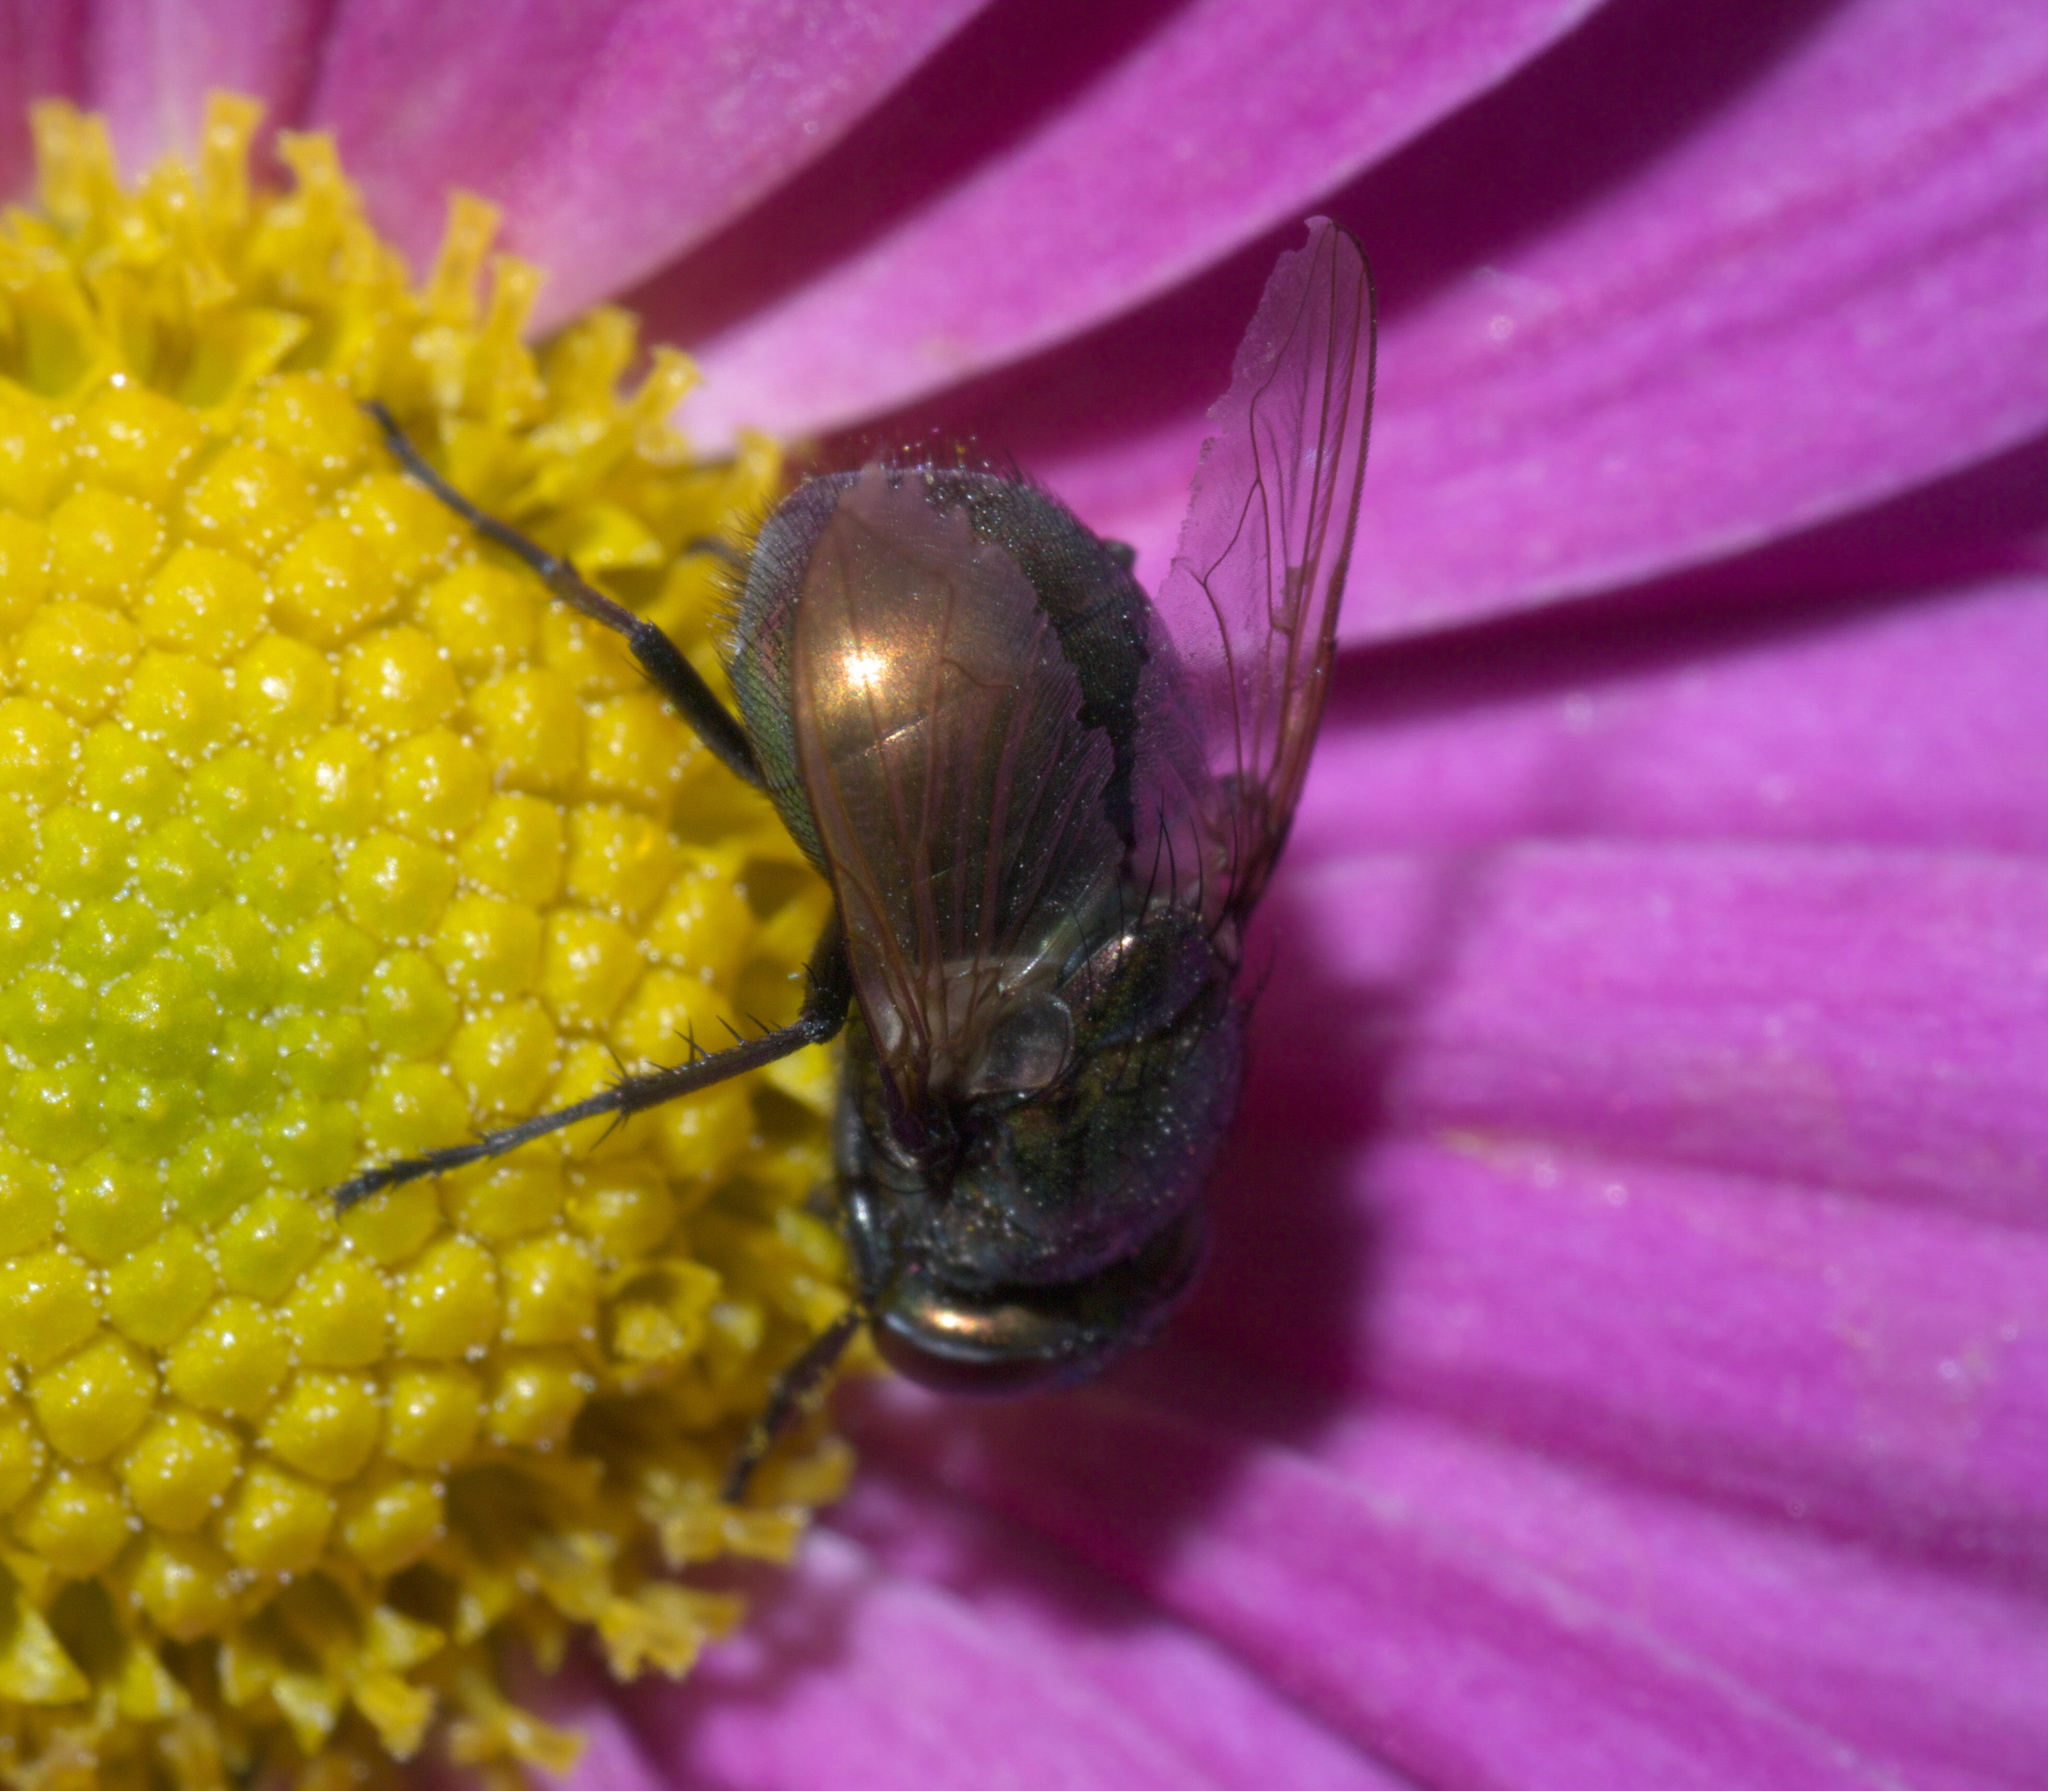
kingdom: Animalia
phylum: Arthropoda
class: Insecta
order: Diptera
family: Muscidae
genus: Neomyia
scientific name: Neomyia cornicina
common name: House fly
